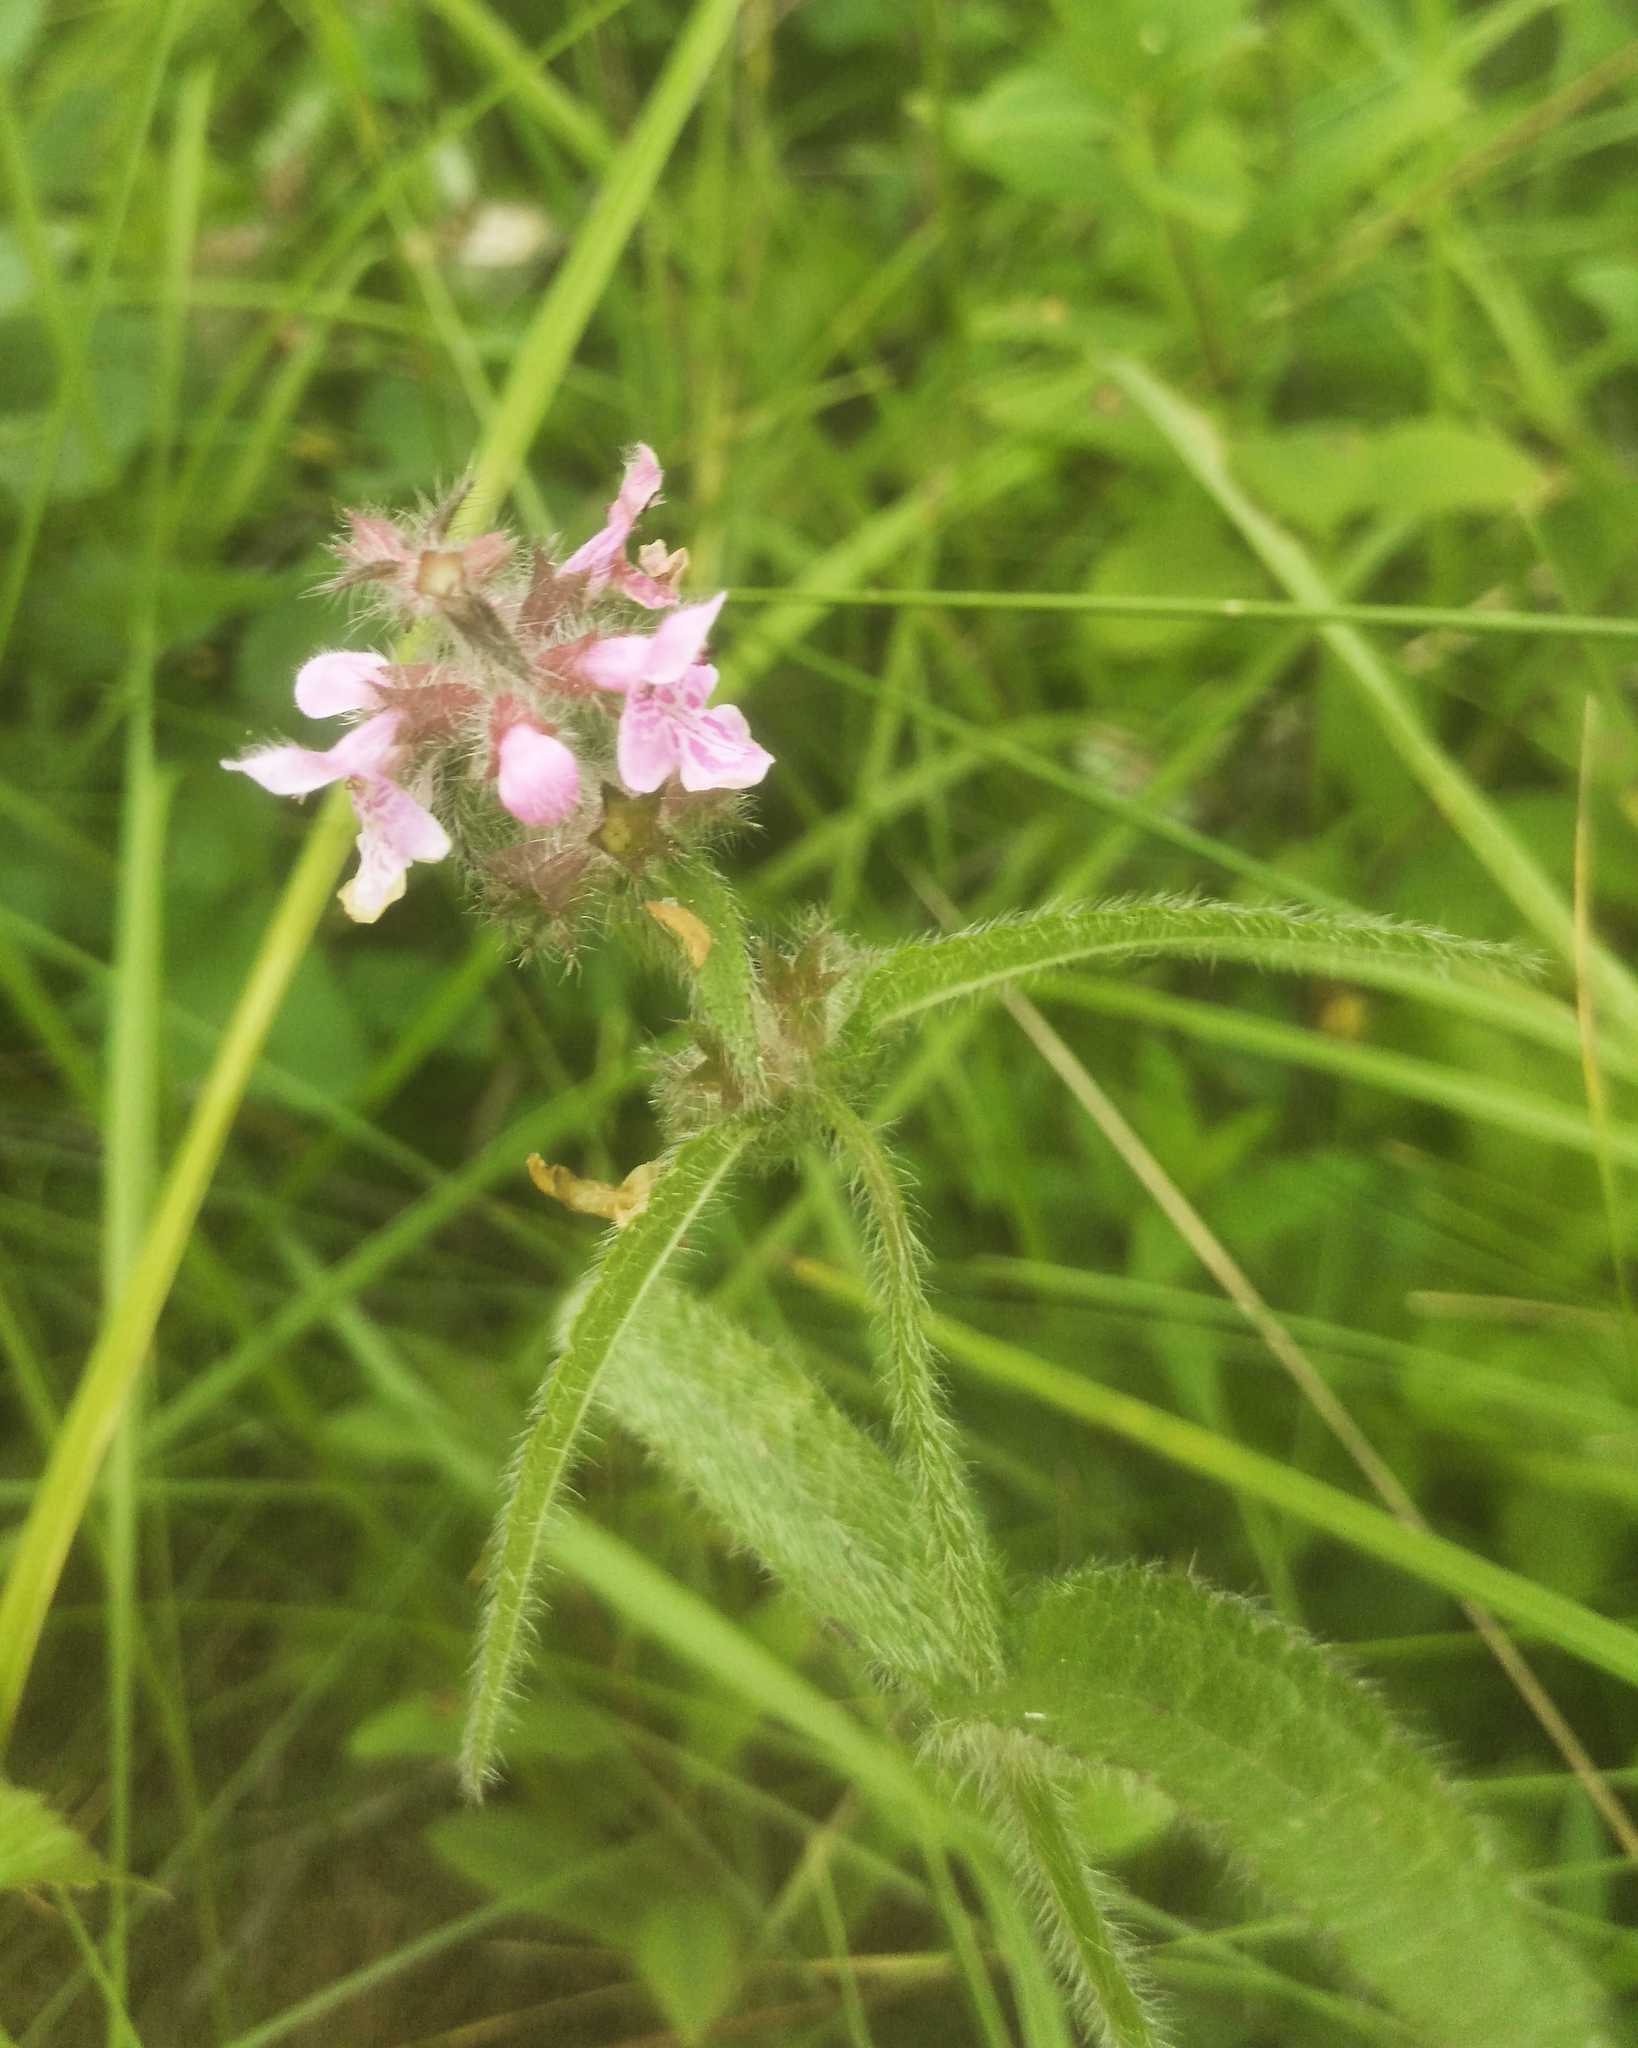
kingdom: Plantae
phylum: Tracheophyta
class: Magnoliopsida
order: Lamiales
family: Lamiaceae
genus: Stachys
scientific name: Stachys aspera
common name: Hyssopleaf hedgenettle
